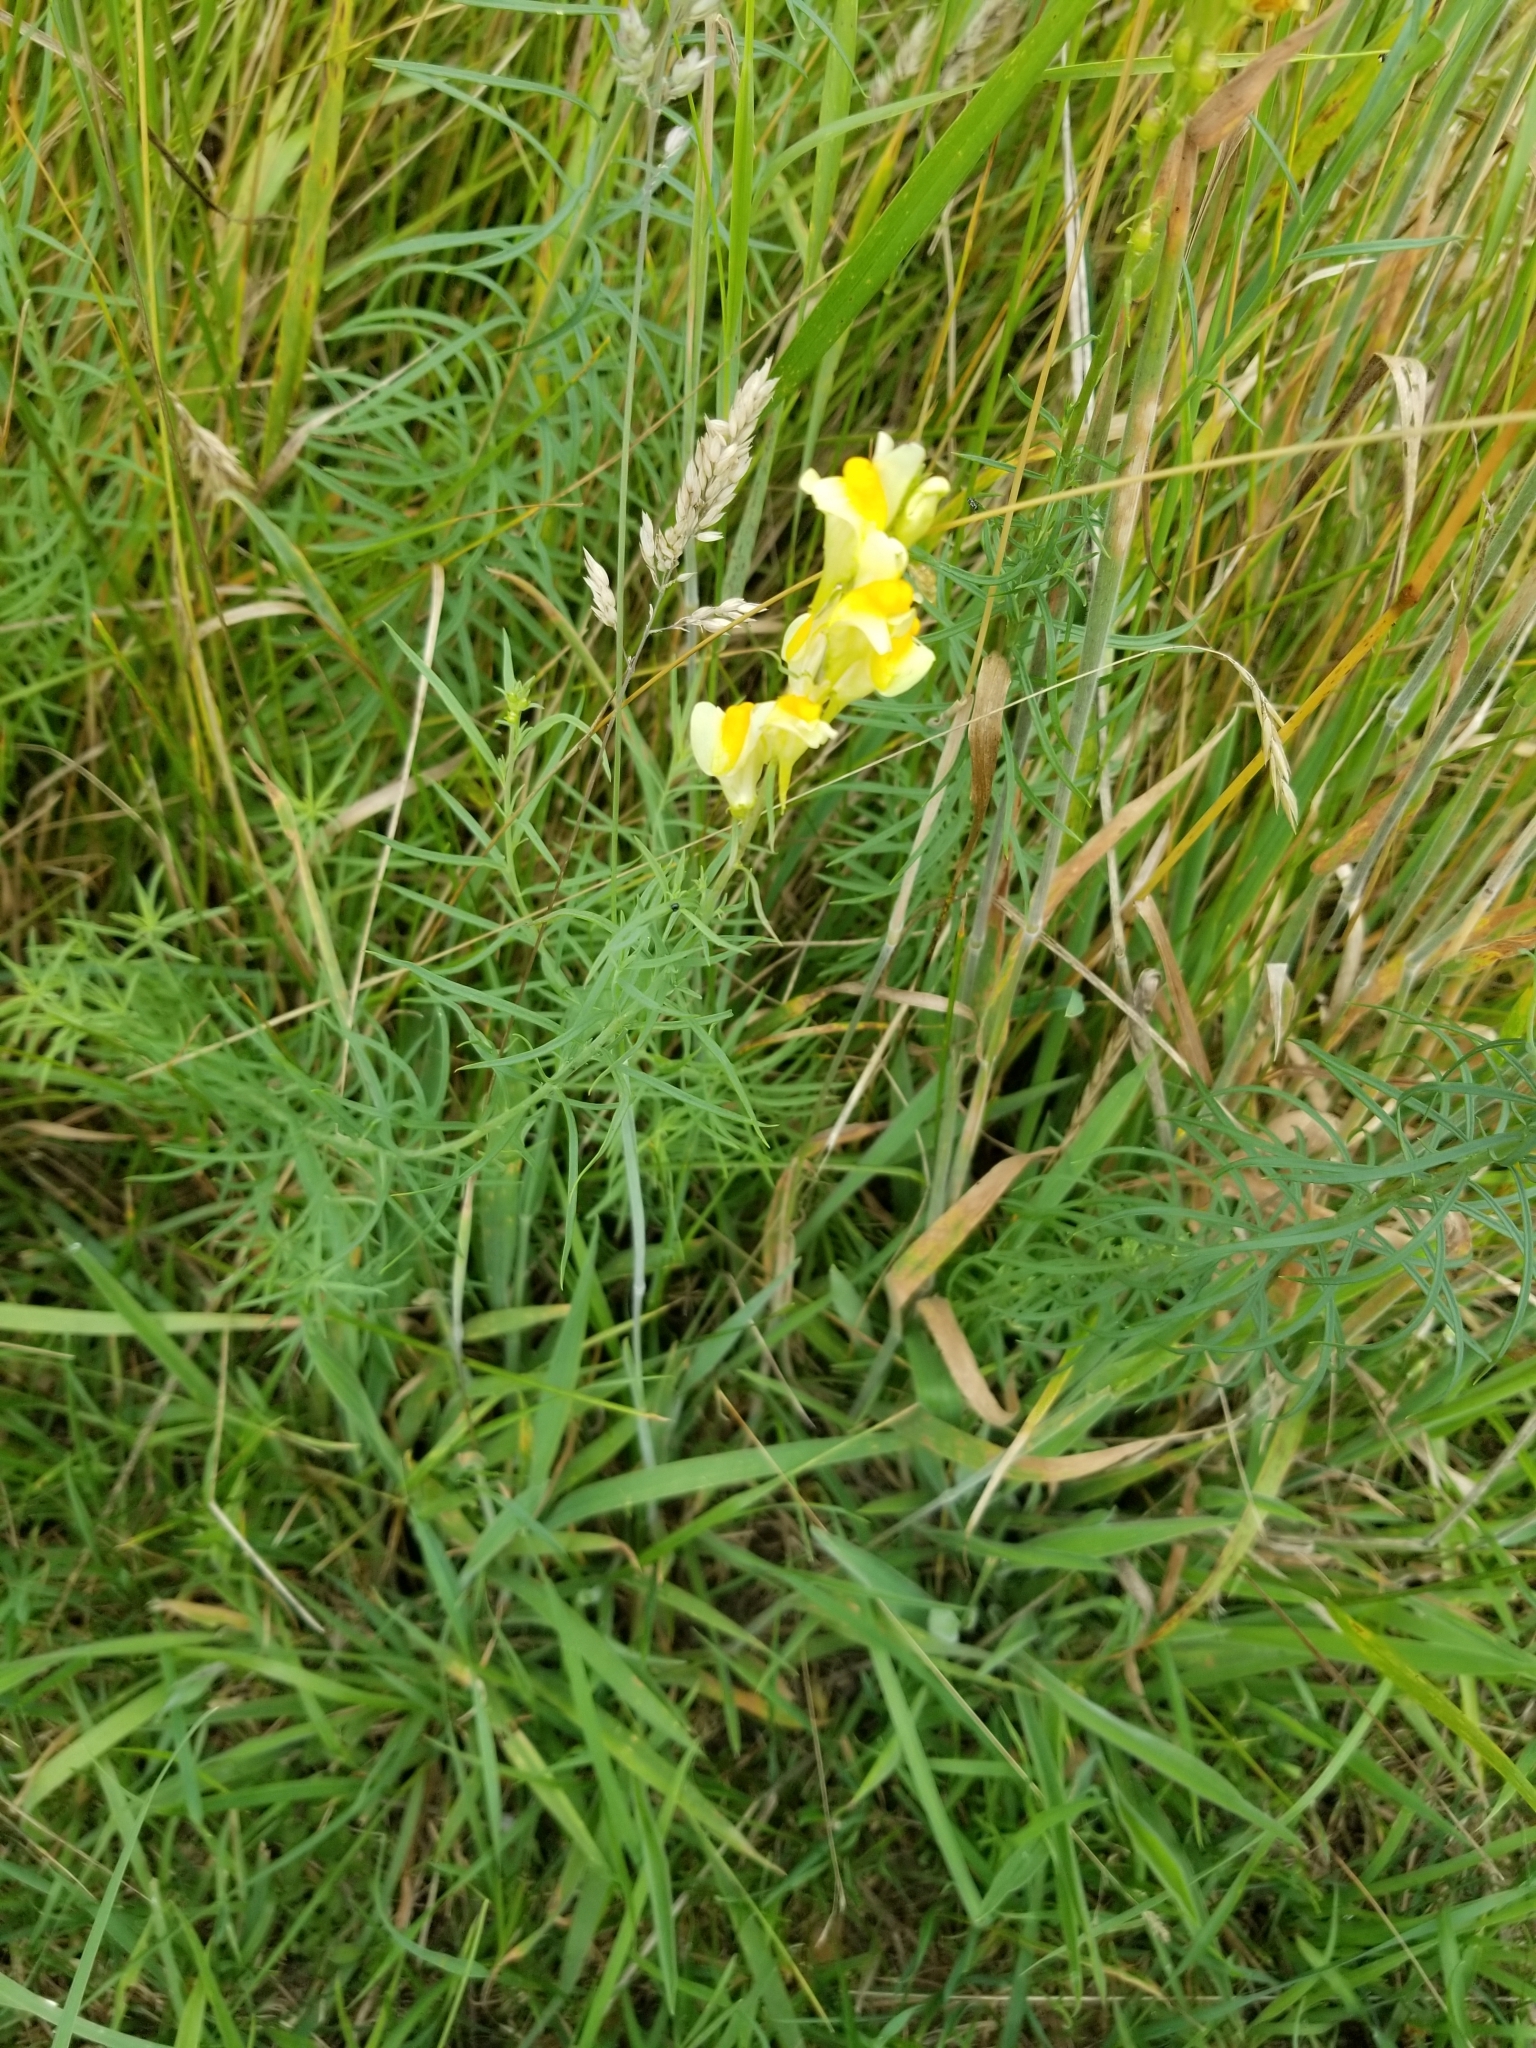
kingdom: Plantae
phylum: Tracheophyta
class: Magnoliopsida
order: Lamiales
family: Plantaginaceae
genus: Linaria
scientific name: Linaria vulgaris
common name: Butter and eggs
